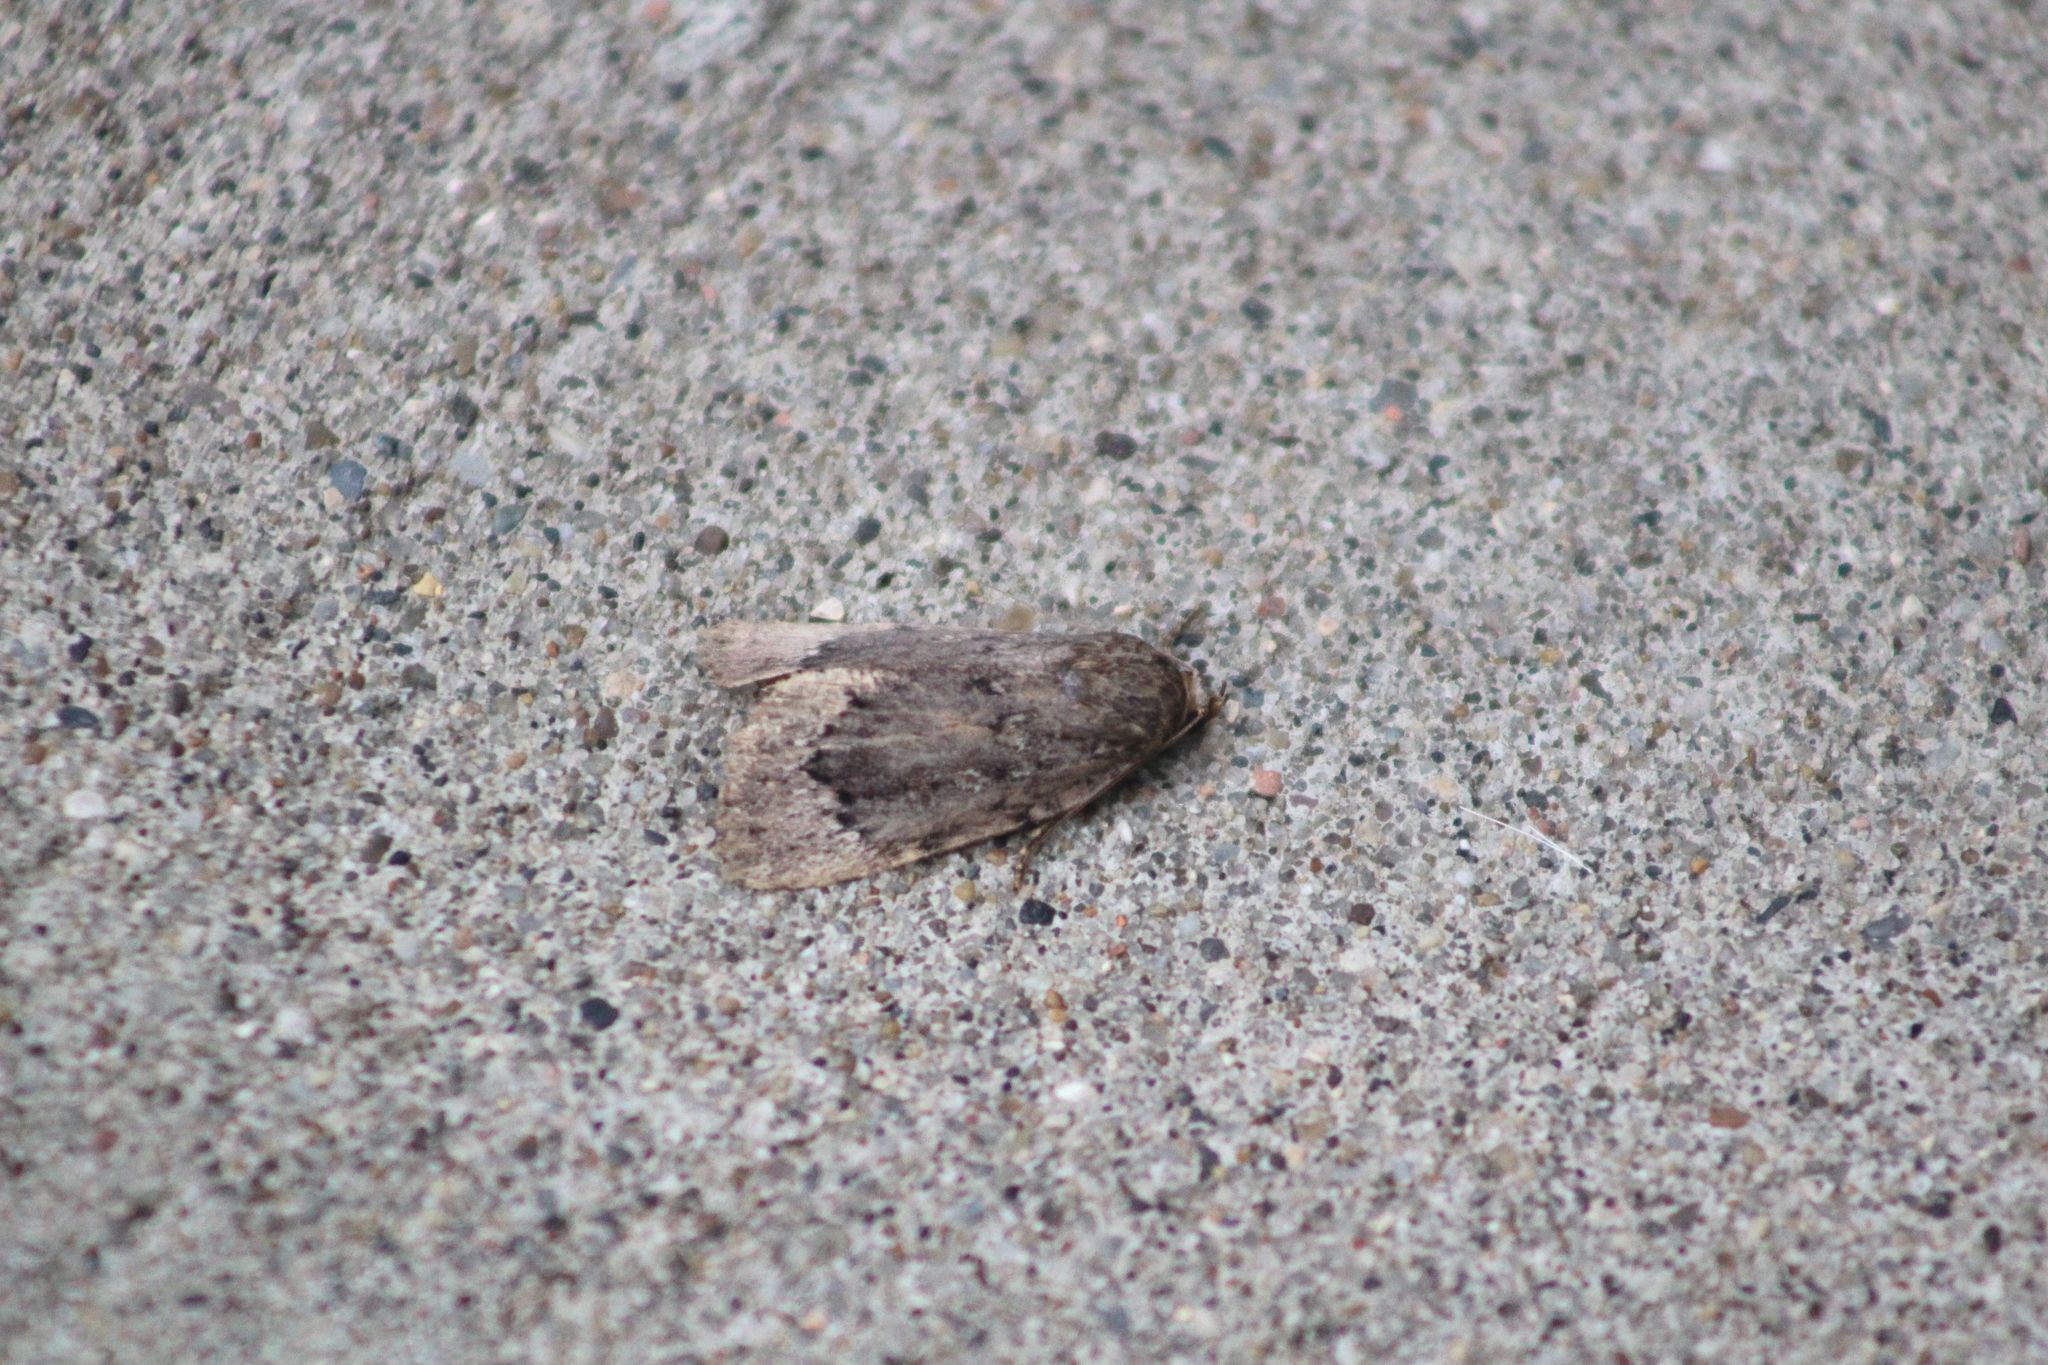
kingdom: Animalia
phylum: Arthropoda
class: Insecta
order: Lepidoptera
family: Noctuidae
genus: Amphipyra
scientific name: Amphipyra pyramidoides
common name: American copper underwing
